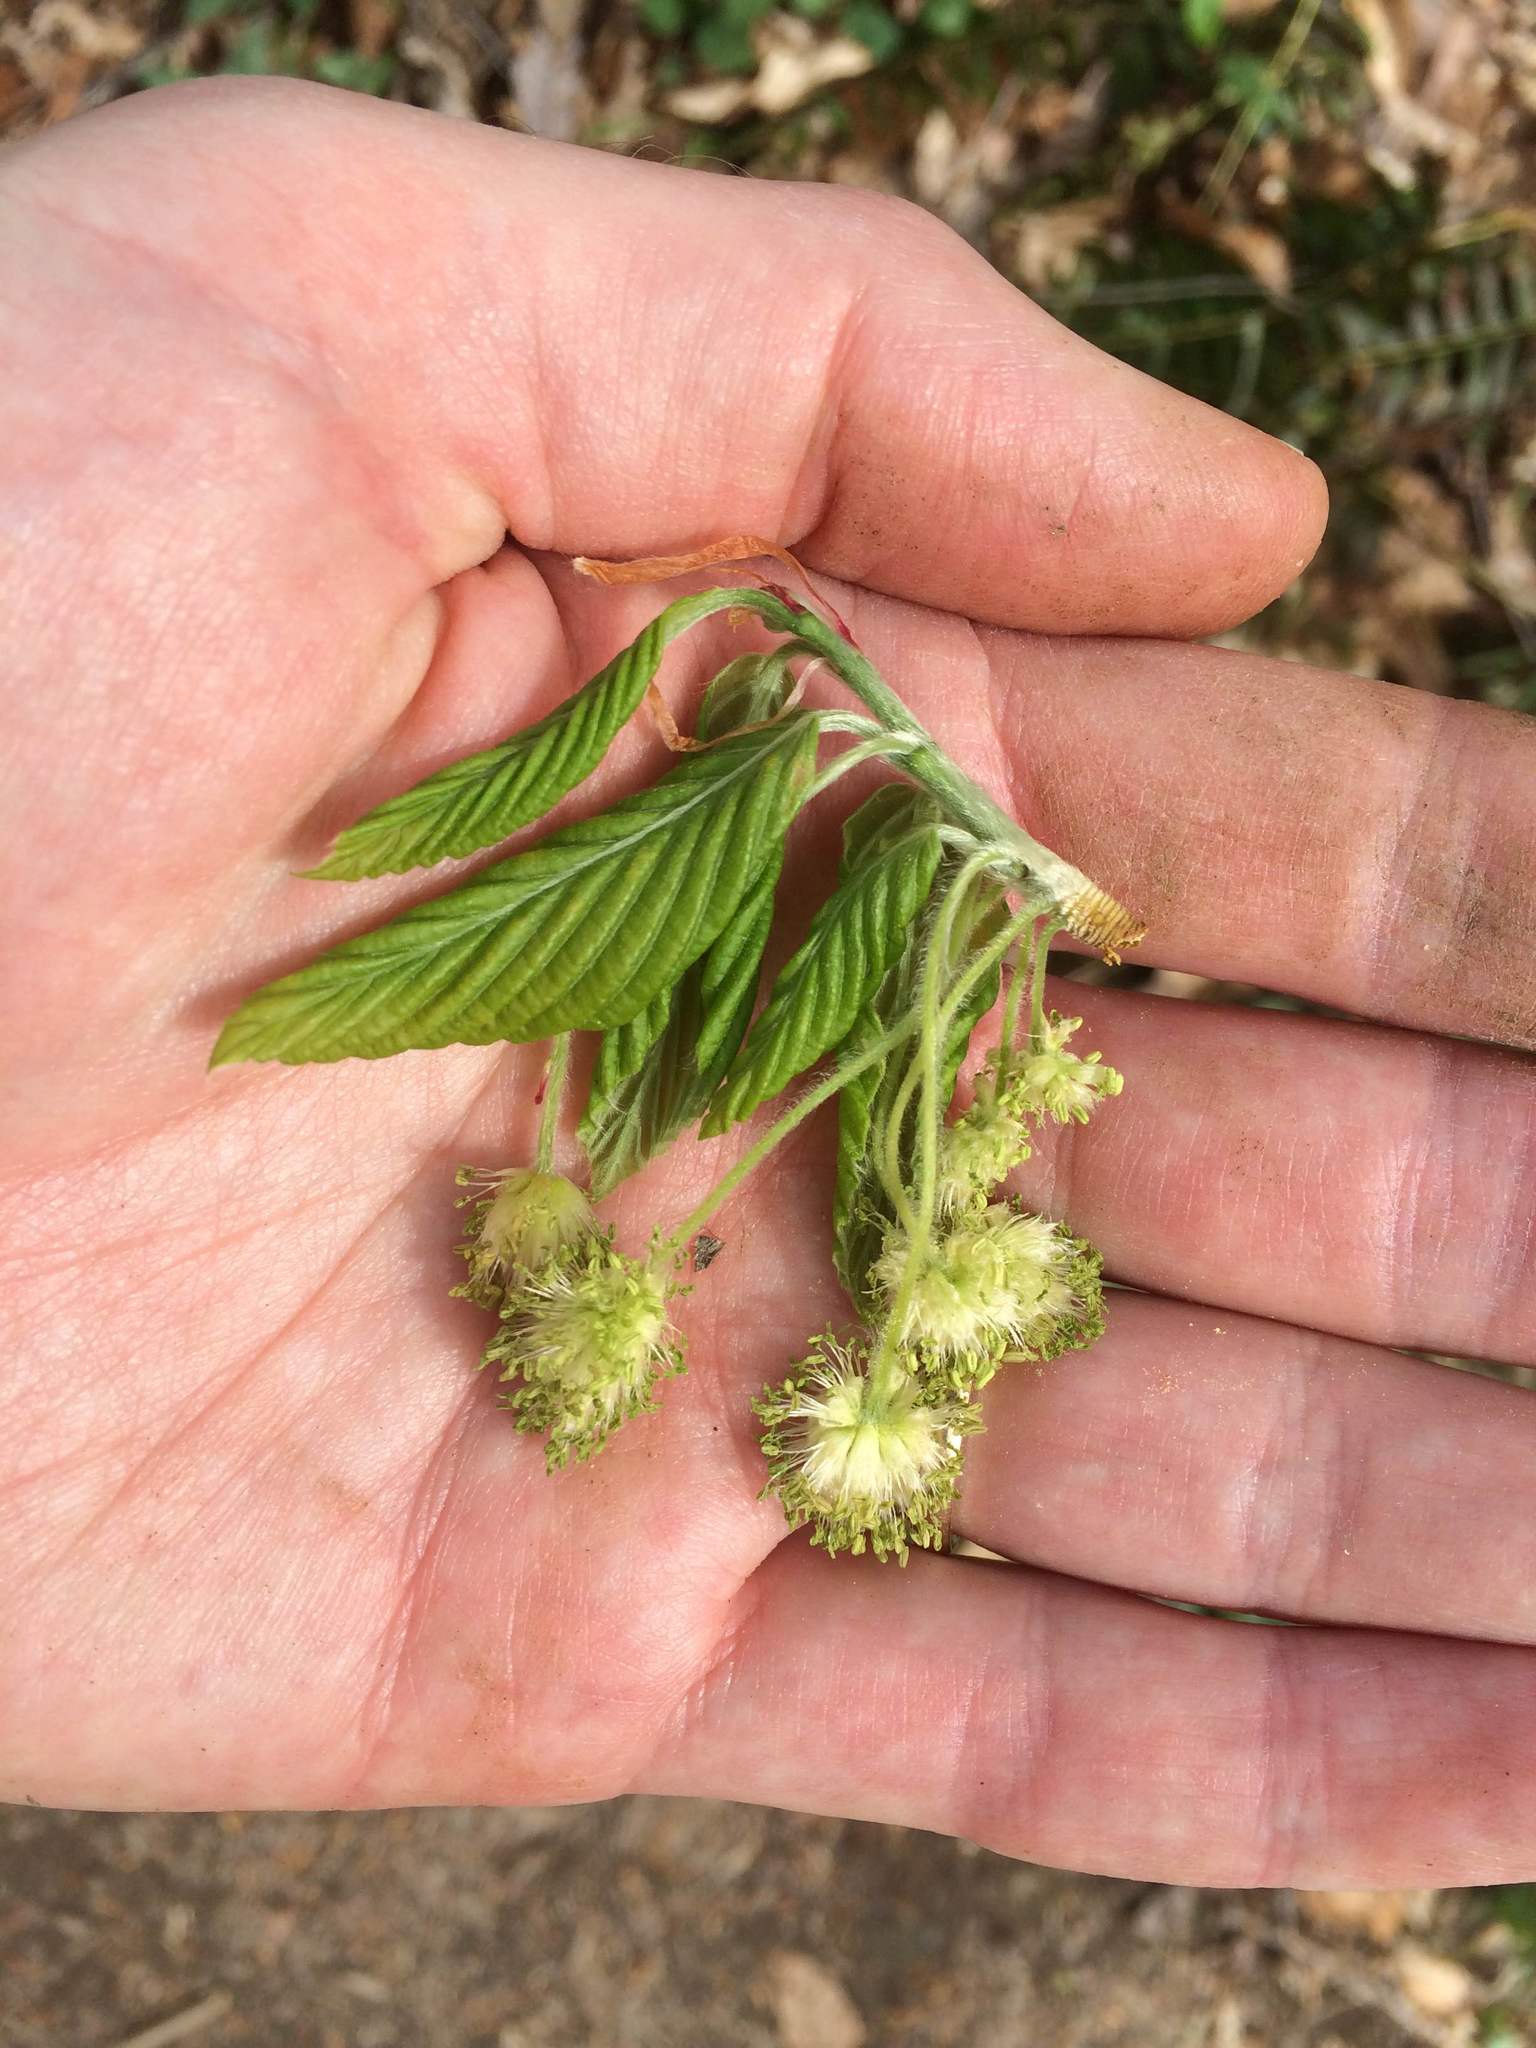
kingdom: Plantae
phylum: Tracheophyta
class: Magnoliopsida
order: Fagales
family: Fagaceae
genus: Fagus
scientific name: Fagus grandifolia
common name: American beech
